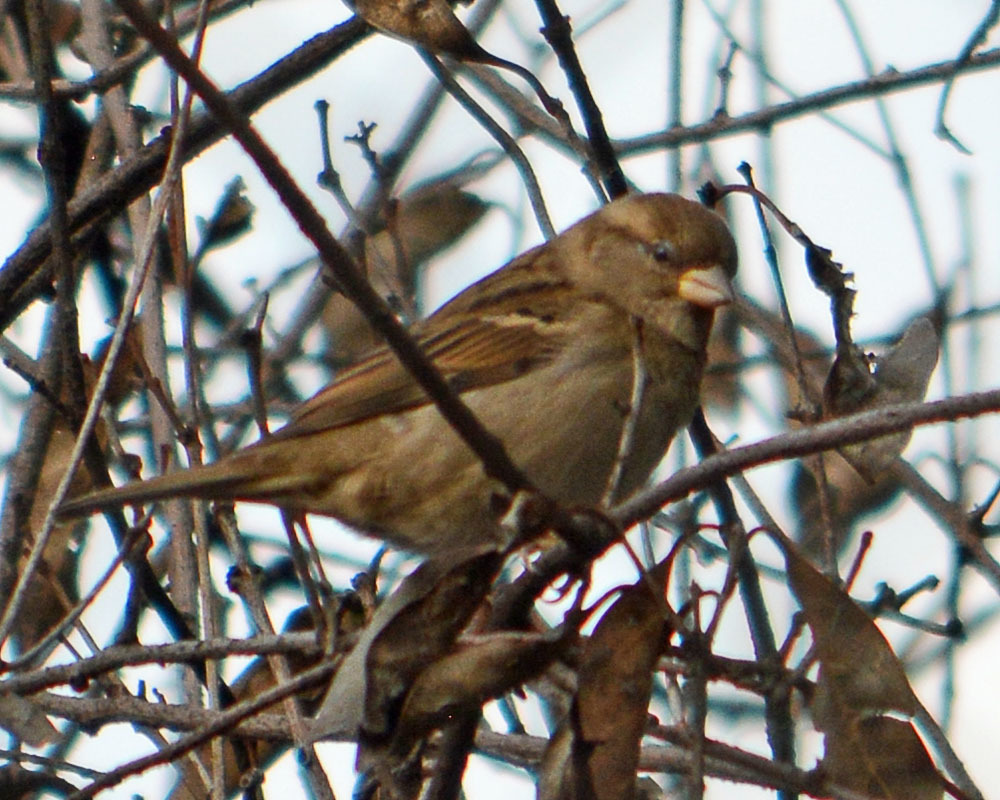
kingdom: Animalia
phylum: Chordata
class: Aves
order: Passeriformes
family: Passeridae
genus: Passer
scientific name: Passer domesticus
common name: House sparrow
